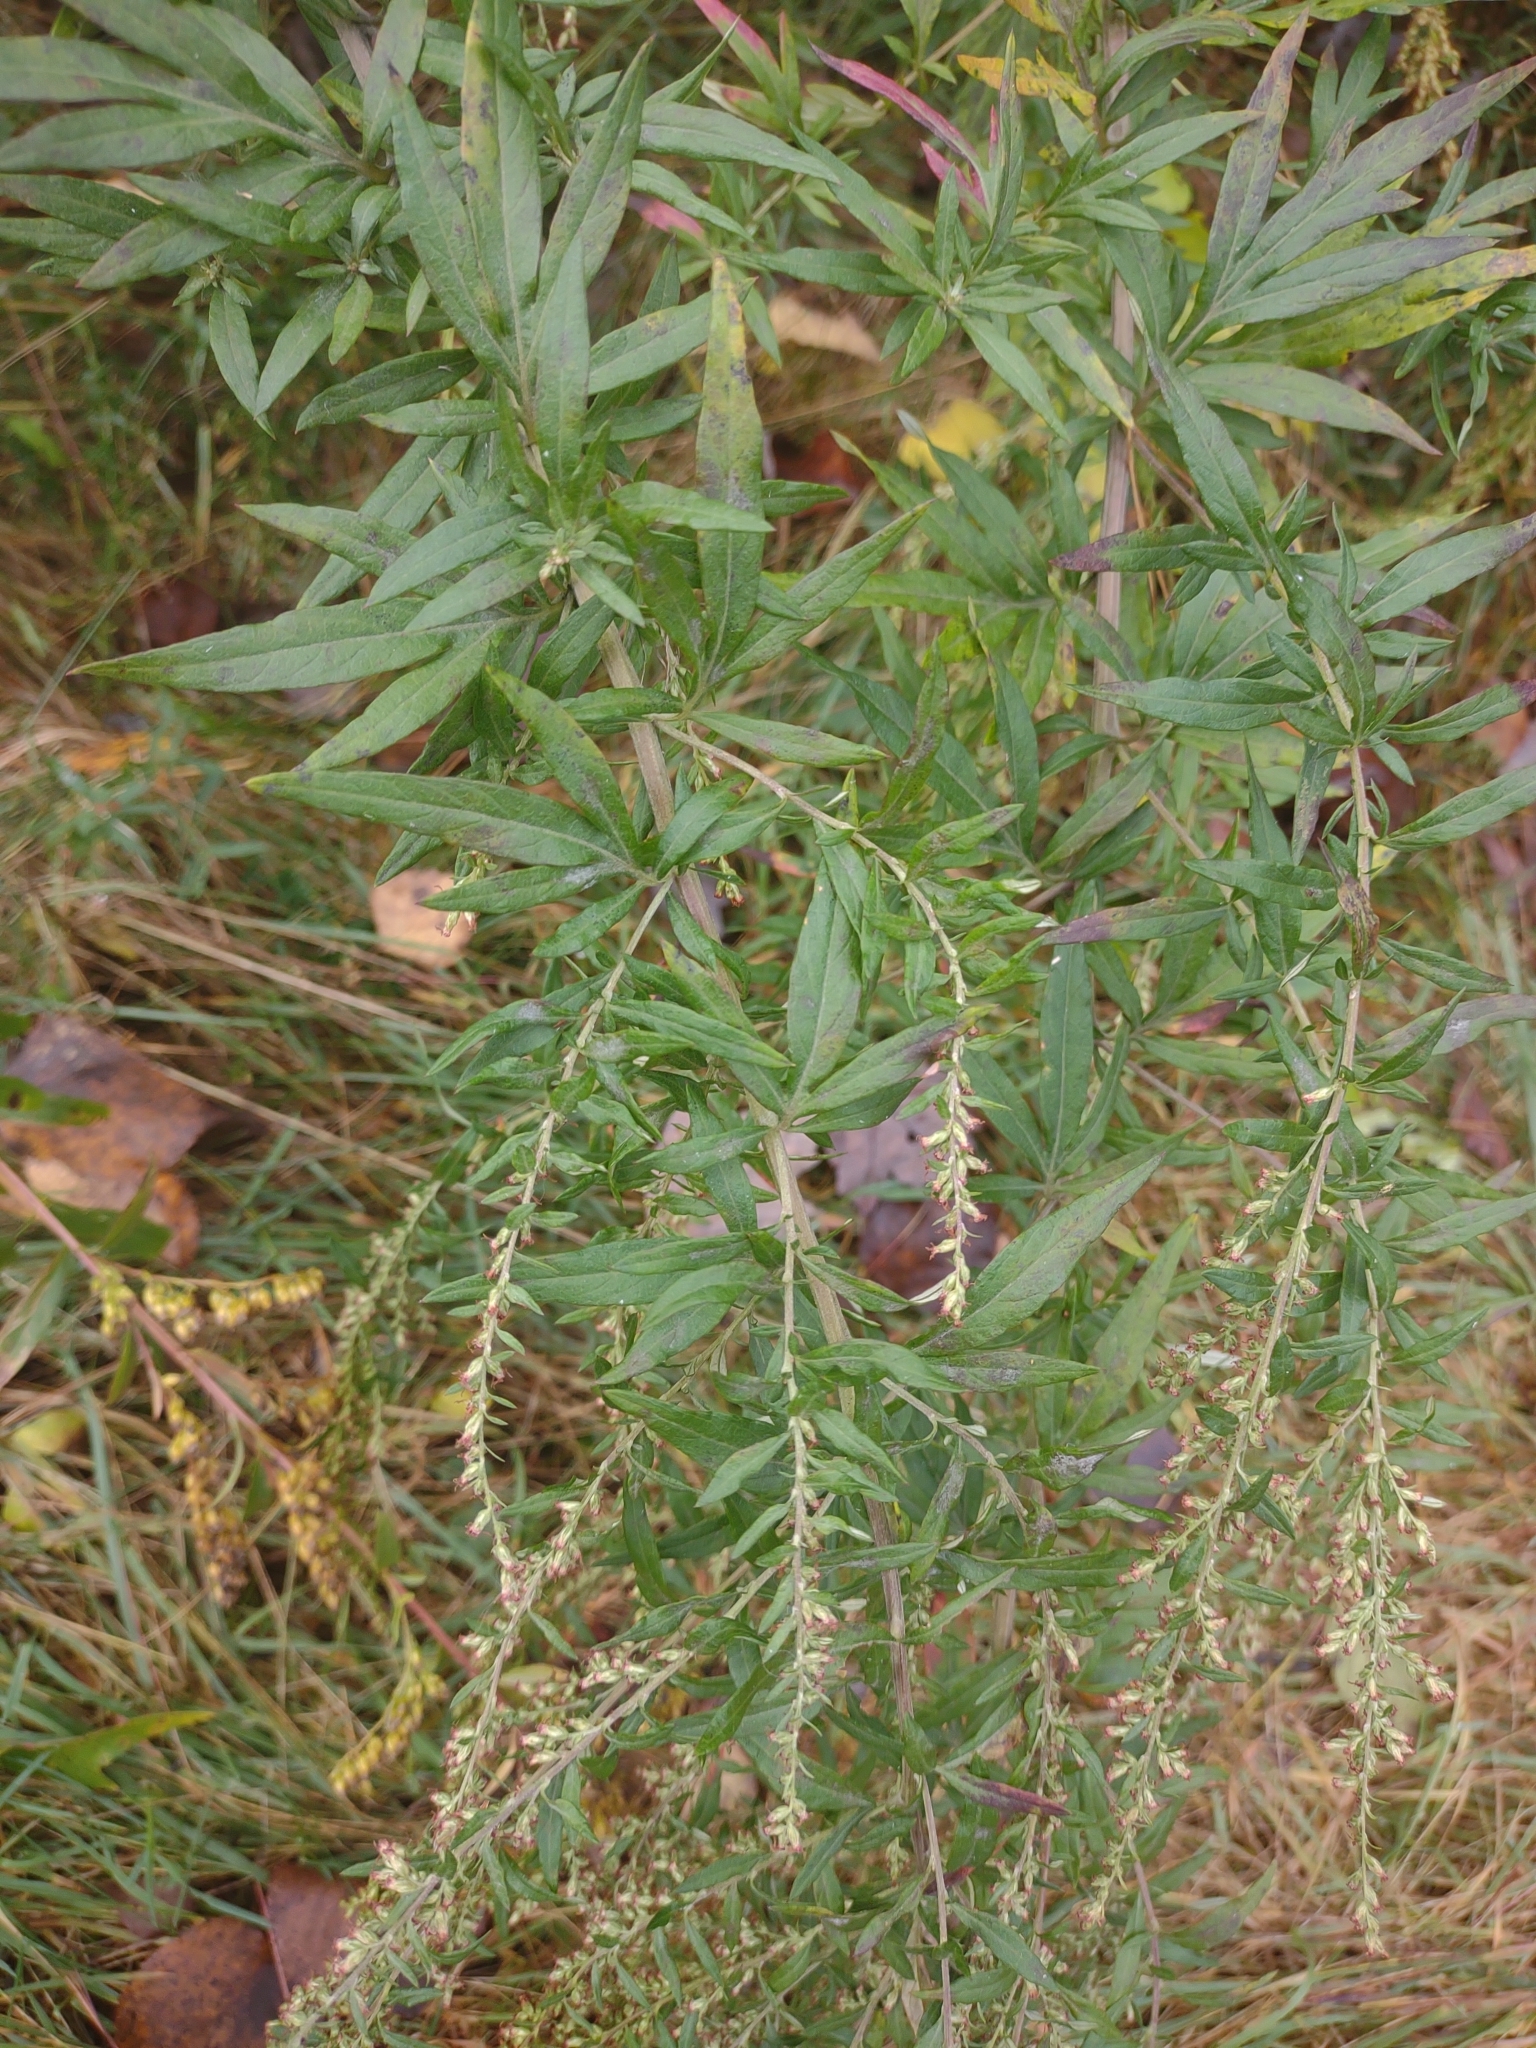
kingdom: Plantae
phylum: Tracheophyta
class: Magnoliopsida
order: Asterales
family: Asteraceae
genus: Artemisia
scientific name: Artemisia vulgaris
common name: Mugwort
